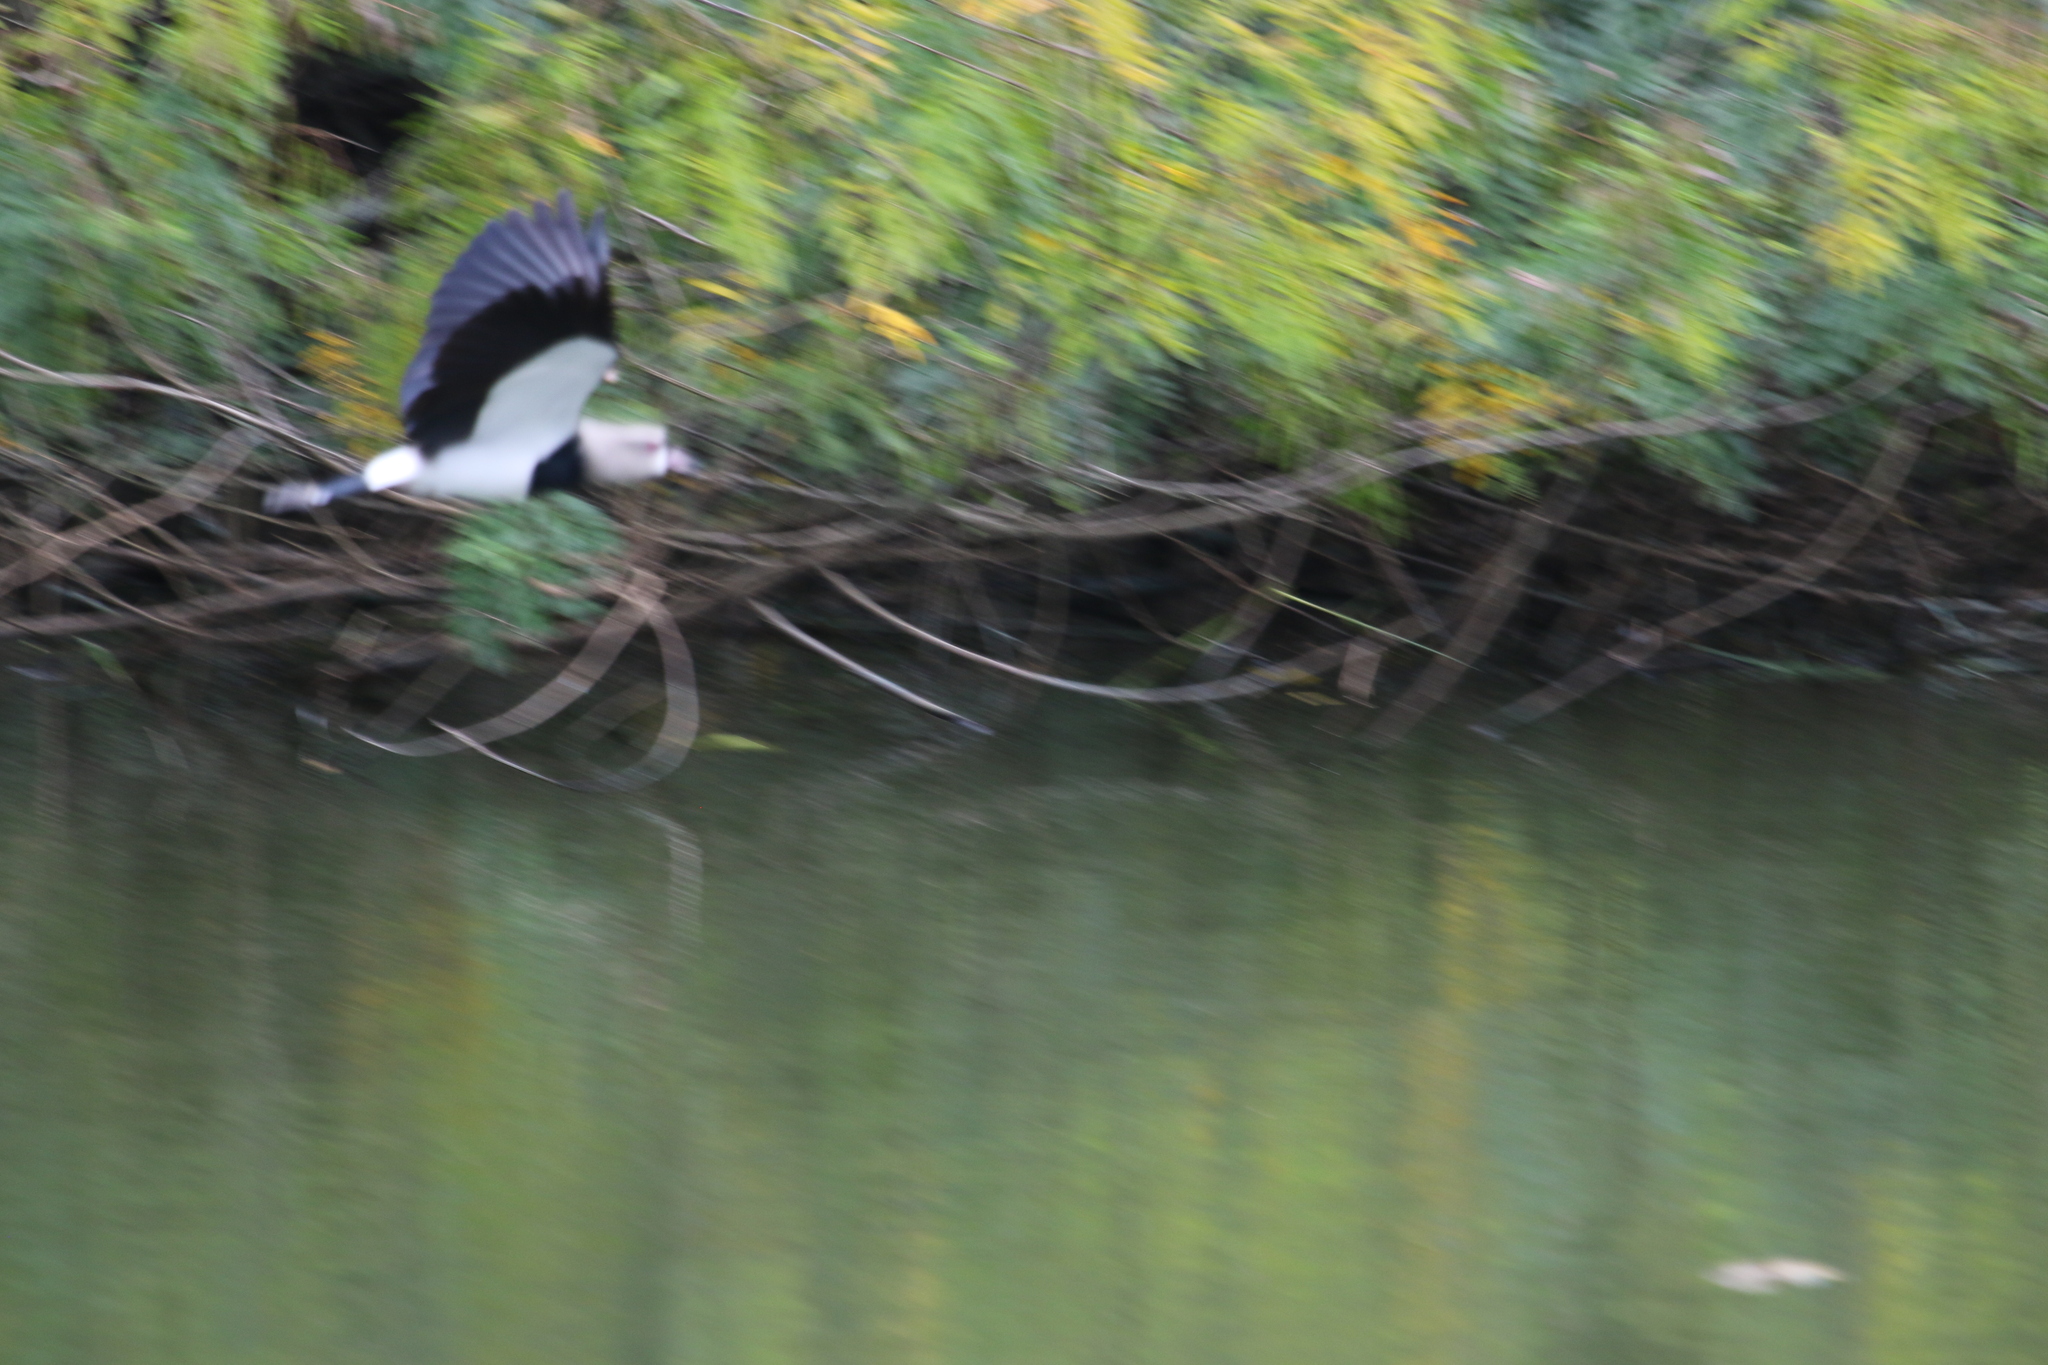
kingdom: Animalia
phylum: Chordata
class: Aves
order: Charadriiformes
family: Charadriidae
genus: Vanellus
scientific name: Vanellus chilensis
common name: Southern lapwing
